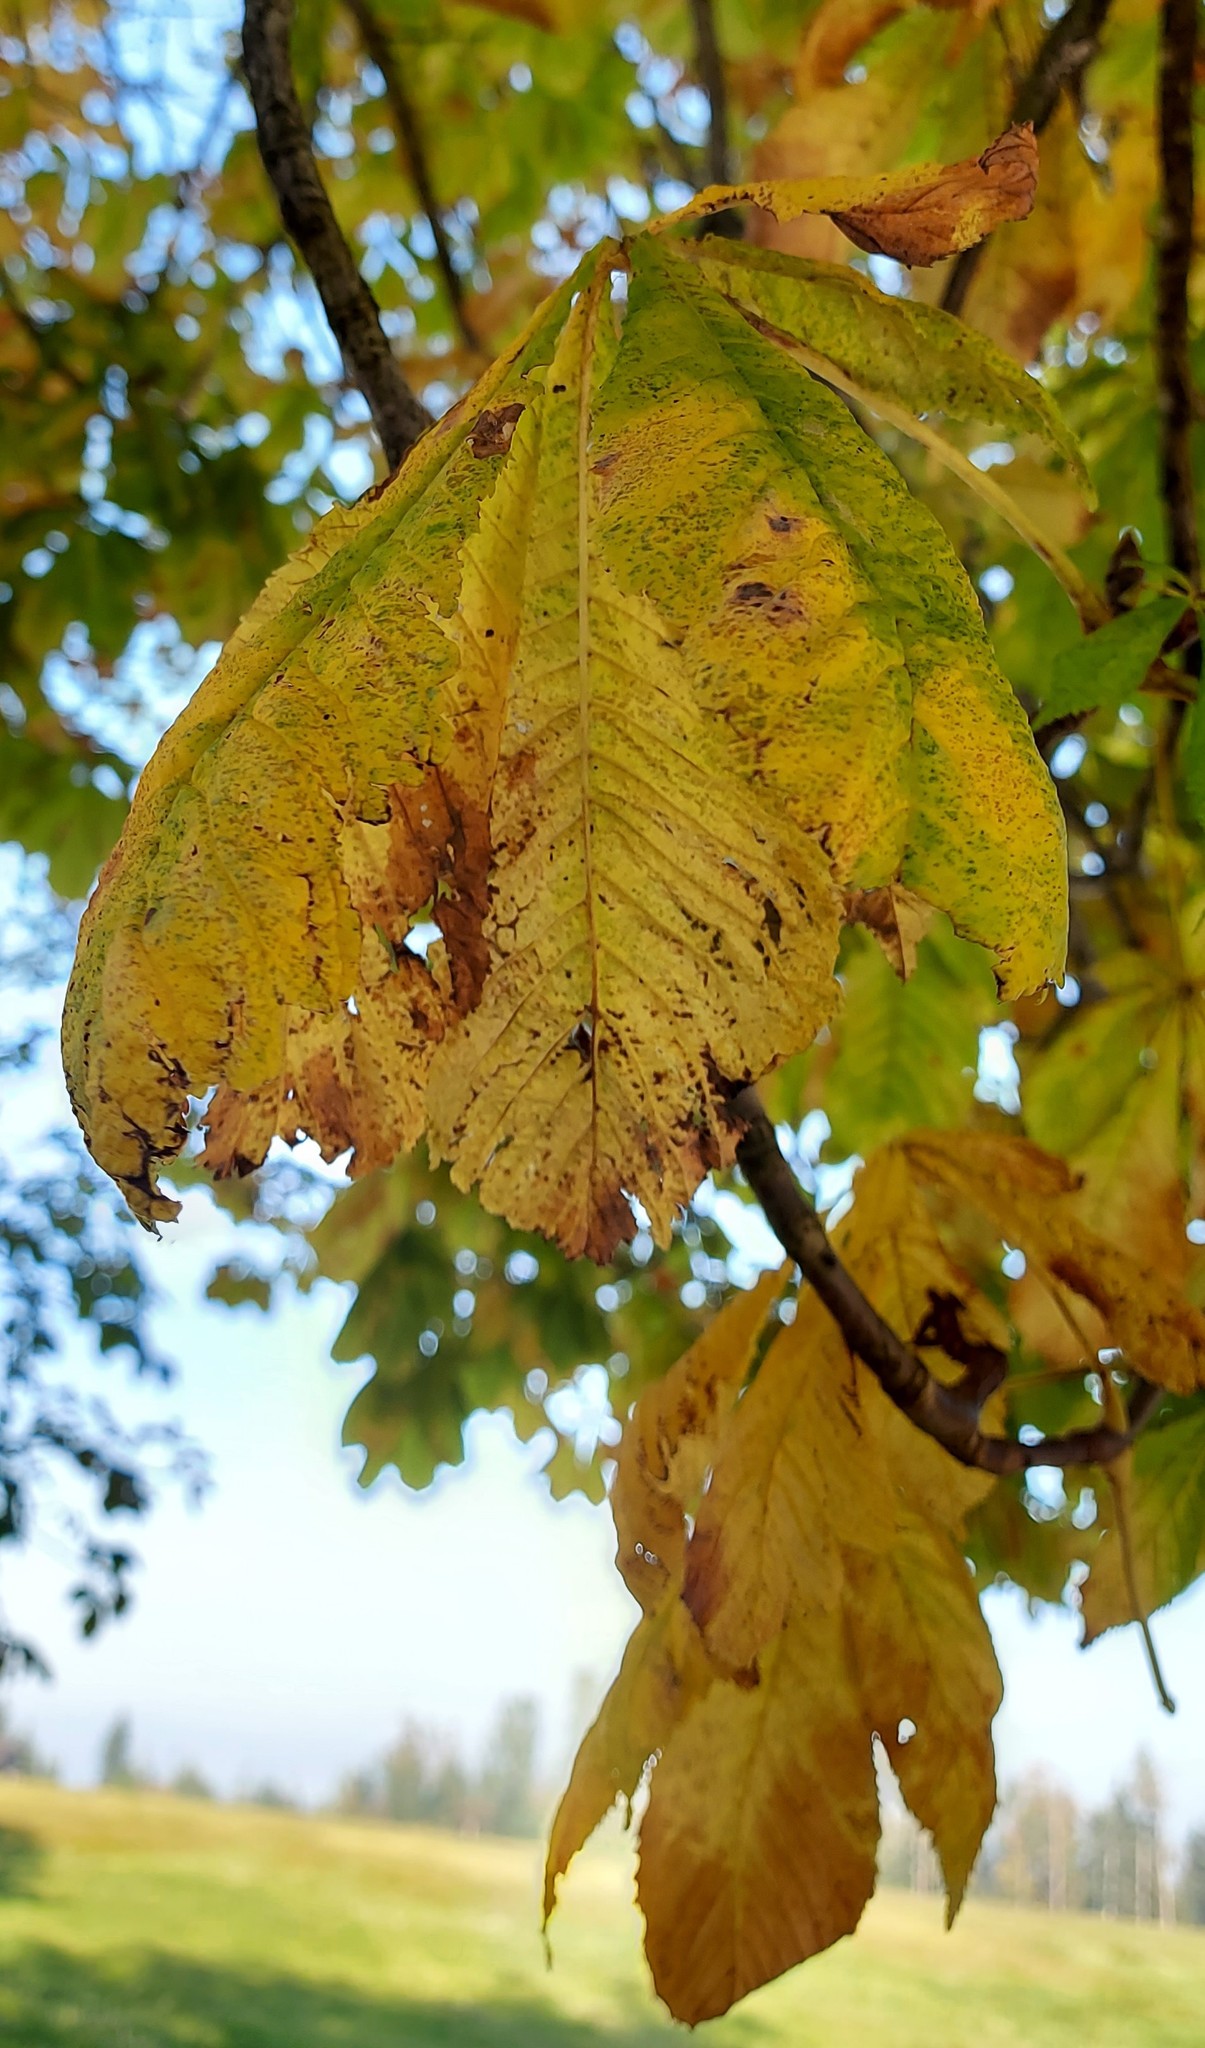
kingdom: Plantae
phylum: Tracheophyta
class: Magnoliopsida
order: Sapindales
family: Sapindaceae
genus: Aesculus
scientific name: Aesculus hippocastanum
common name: Horse-chestnut
